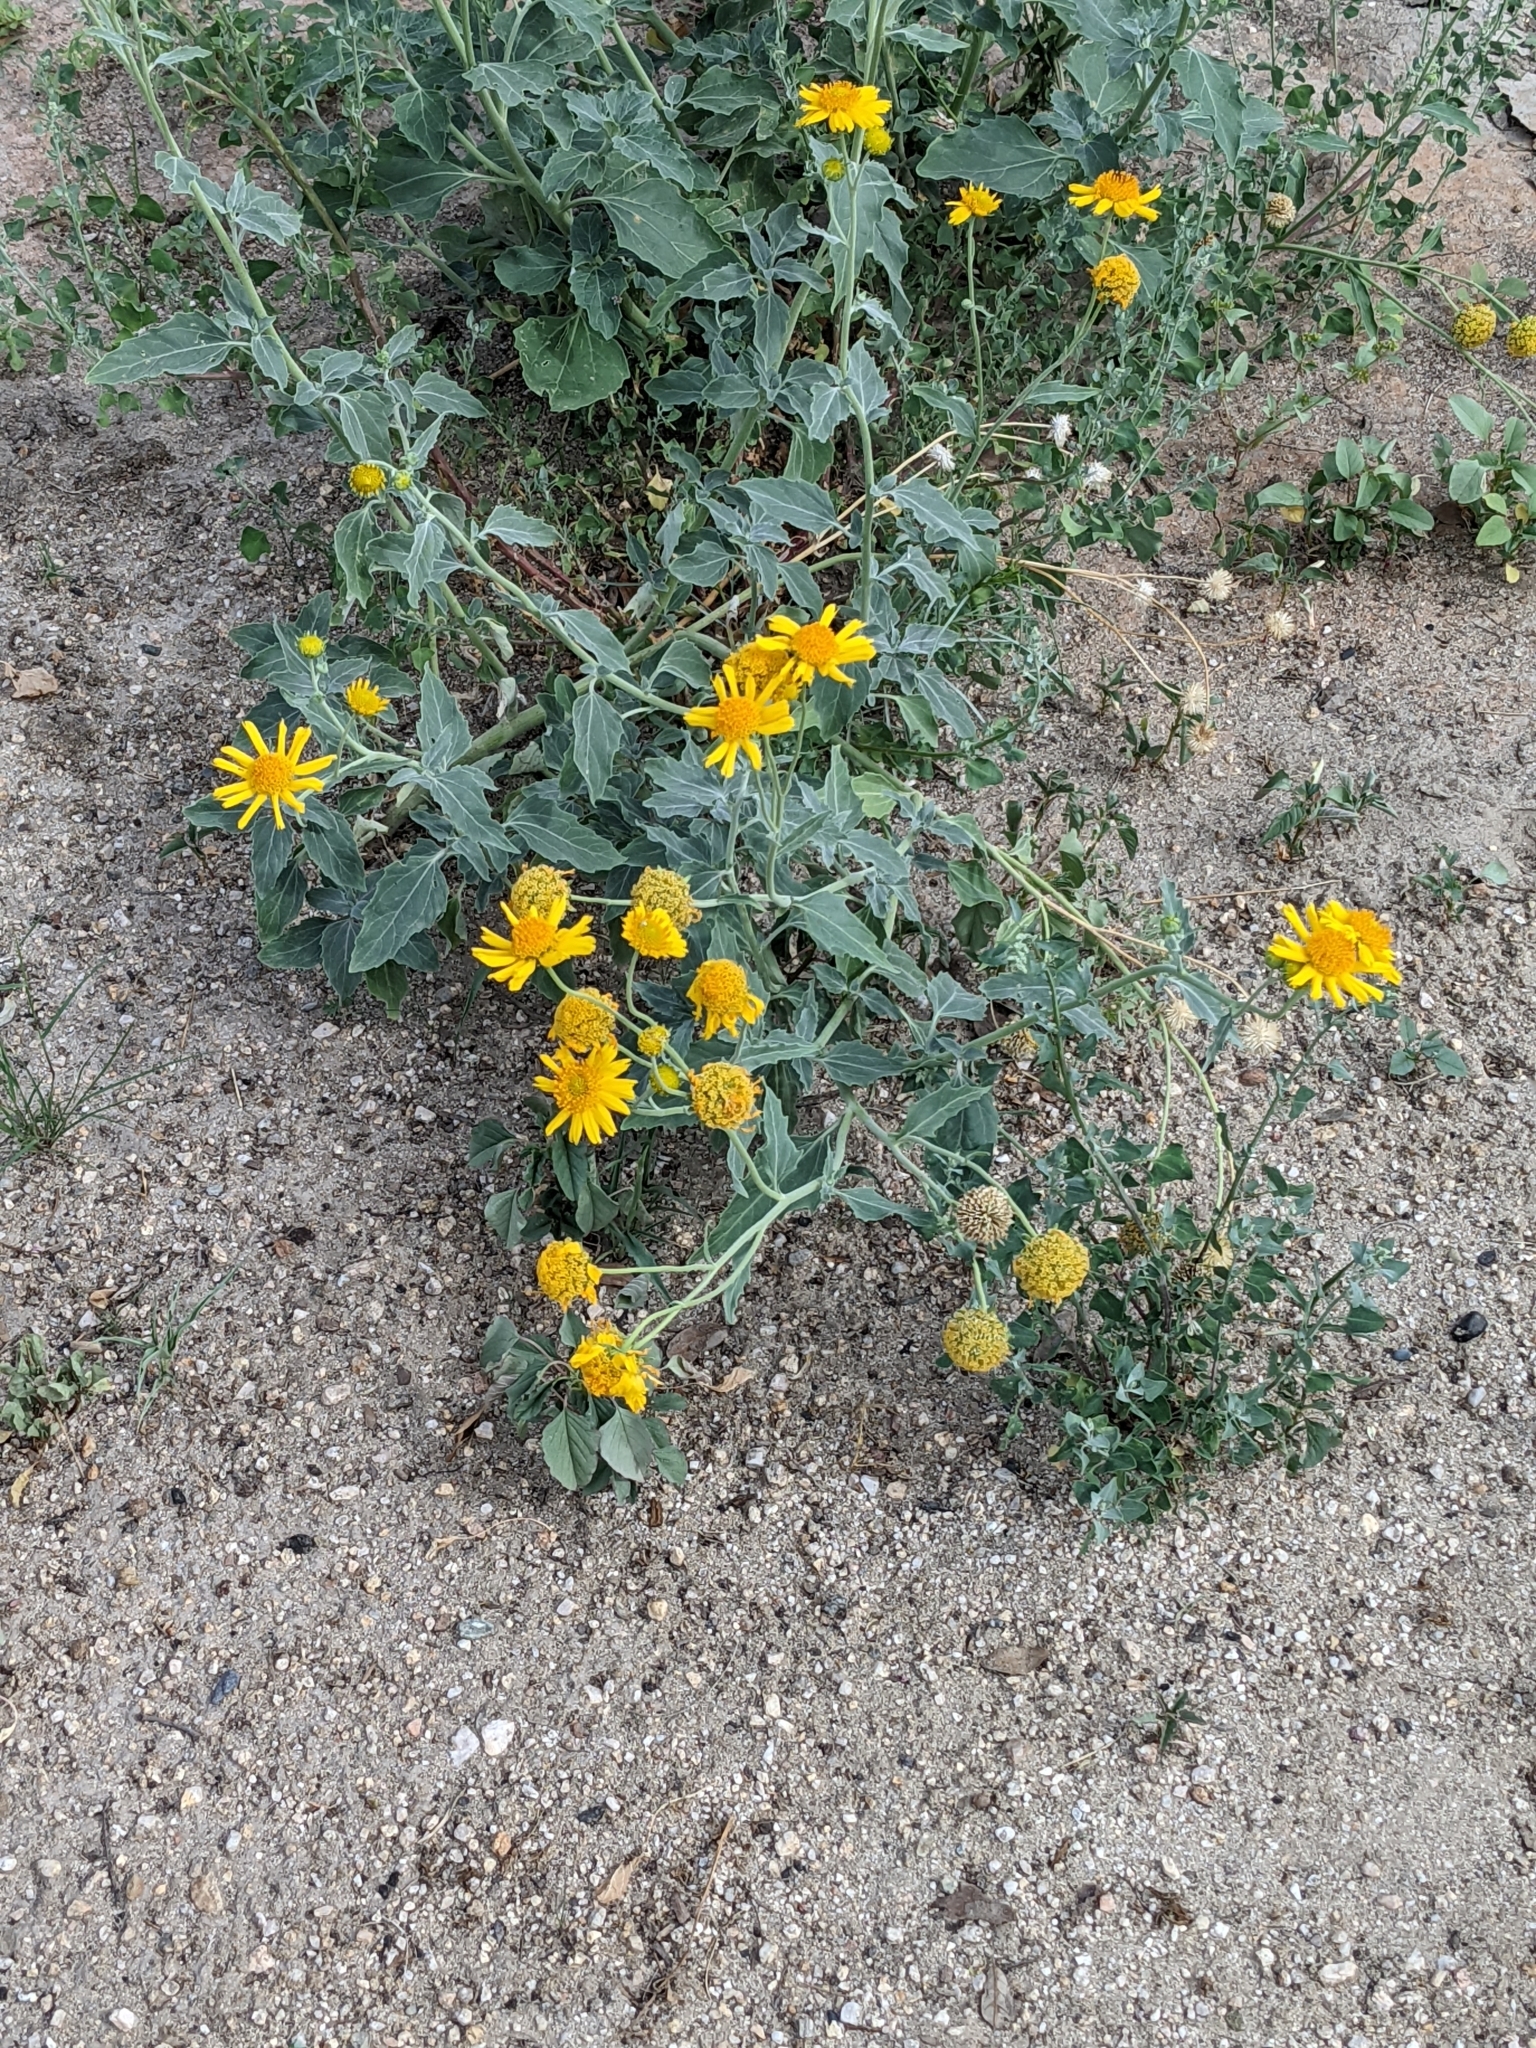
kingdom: Plantae
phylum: Tracheophyta
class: Magnoliopsida
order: Asterales
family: Asteraceae
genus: Verbesina
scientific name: Verbesina encelioides
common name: Golden crownbeard
